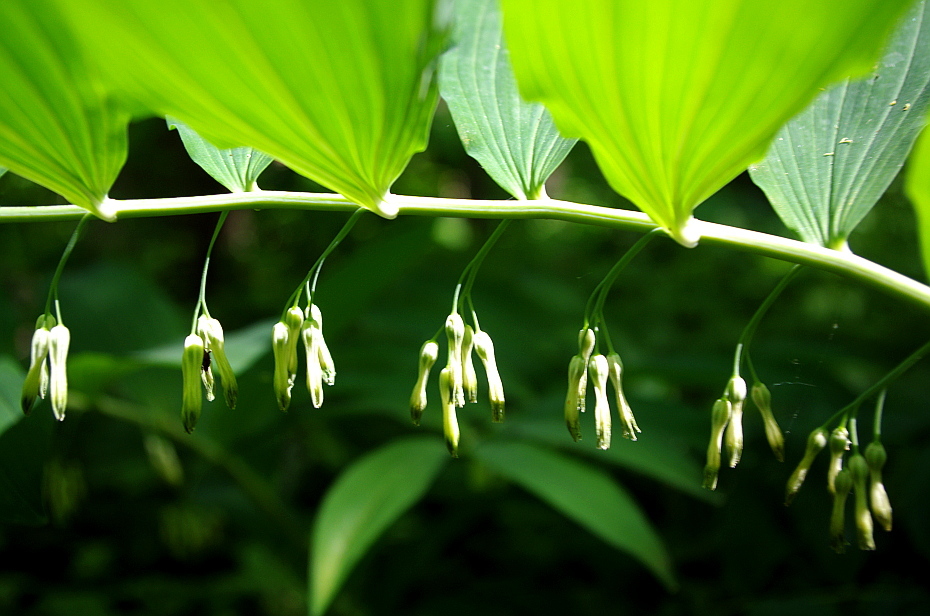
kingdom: Plantae
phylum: Tracheophyta
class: Liliopsida
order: Asparagales
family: Asparagaceae
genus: Polygonatum
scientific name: Polygonatum multiflorum
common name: Solomon's-seal
